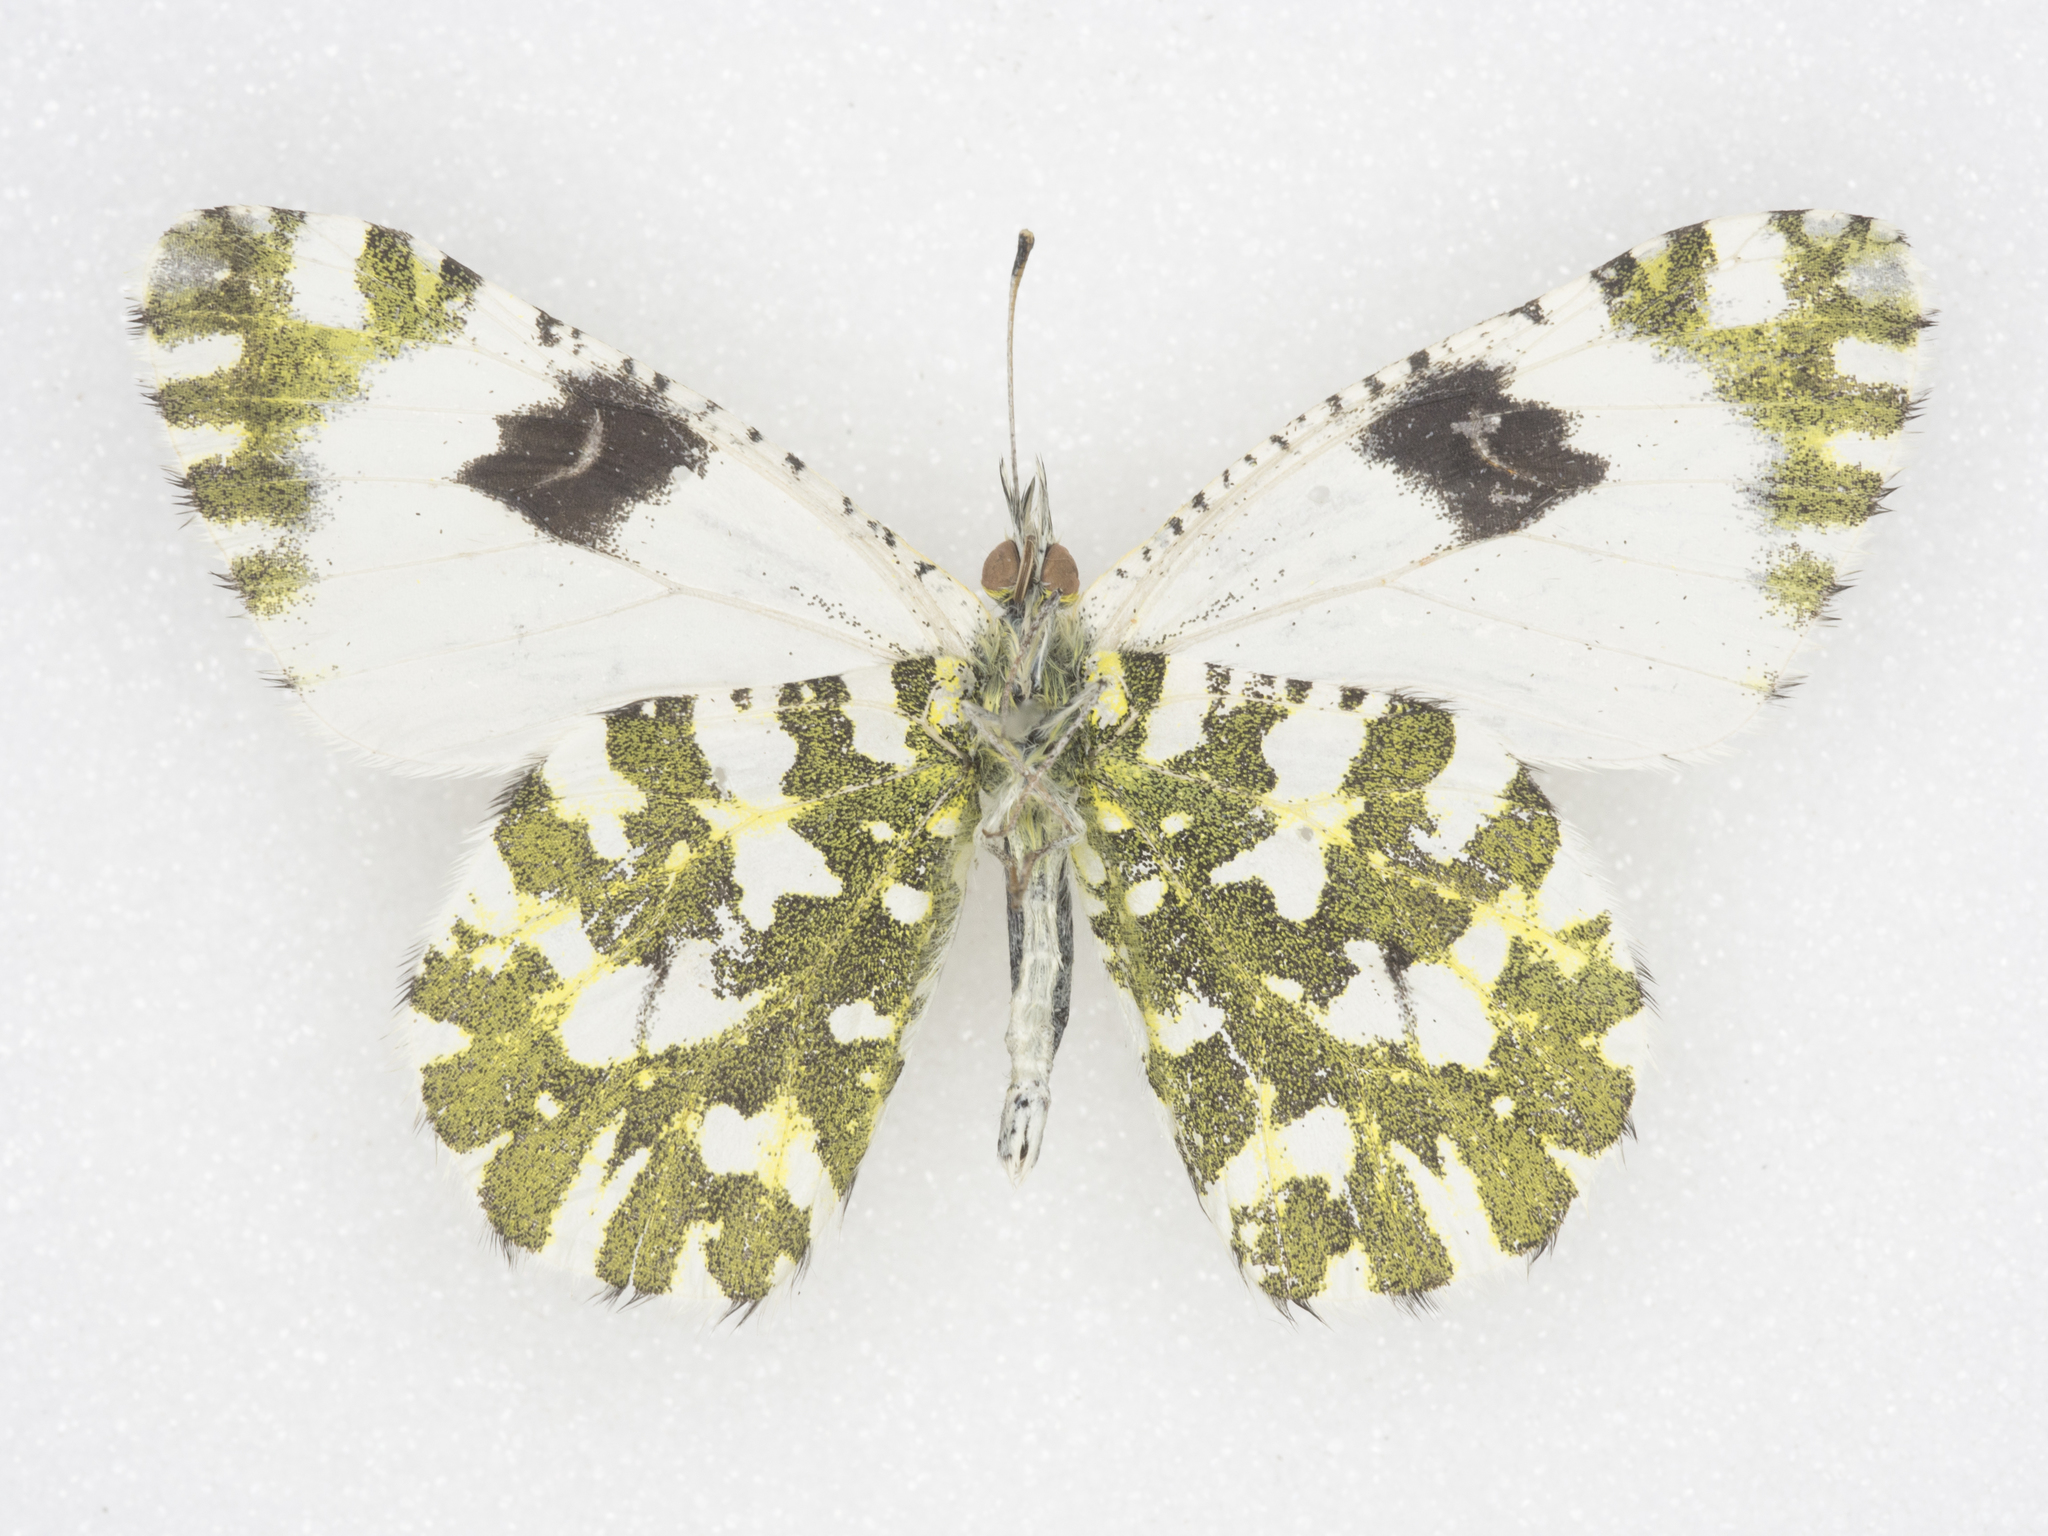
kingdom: Animalia
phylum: Arthropoda
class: Insecta
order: Lepidoptera
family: Pieridae
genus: Euchloe
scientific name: Euchloe lotta
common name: Desert marble
